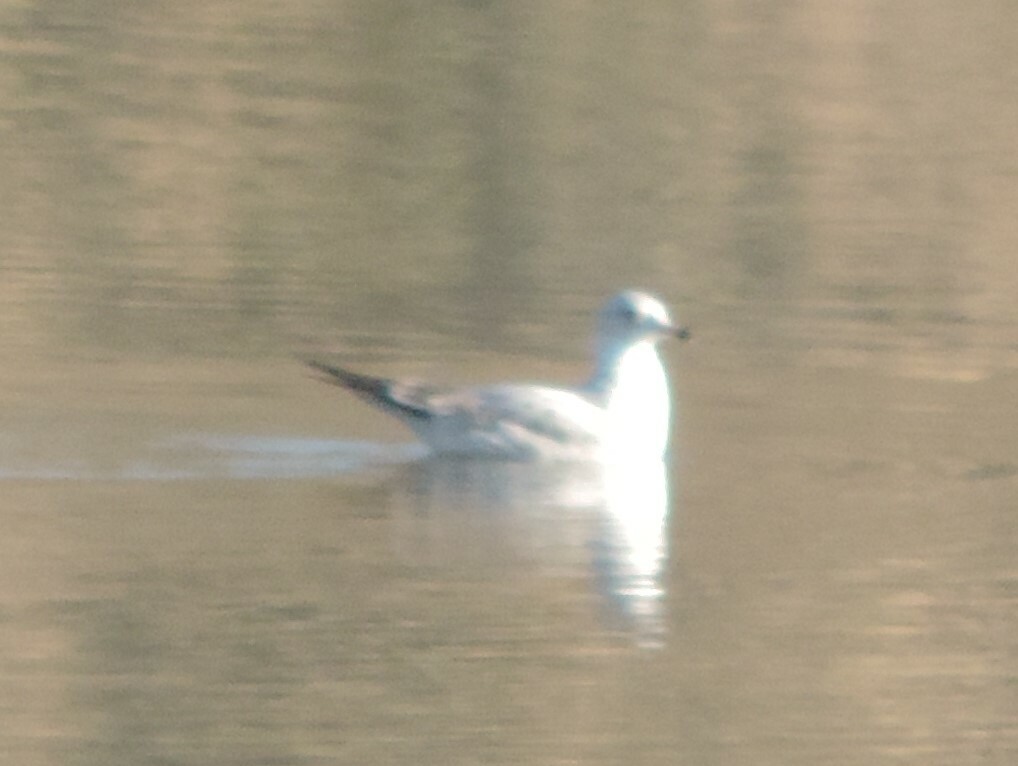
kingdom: Animalia
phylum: Chordata
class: Aves
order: Charadriiformes
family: Laridae
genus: Larus
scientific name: Larus delawarensis
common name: Ring-billed gull
